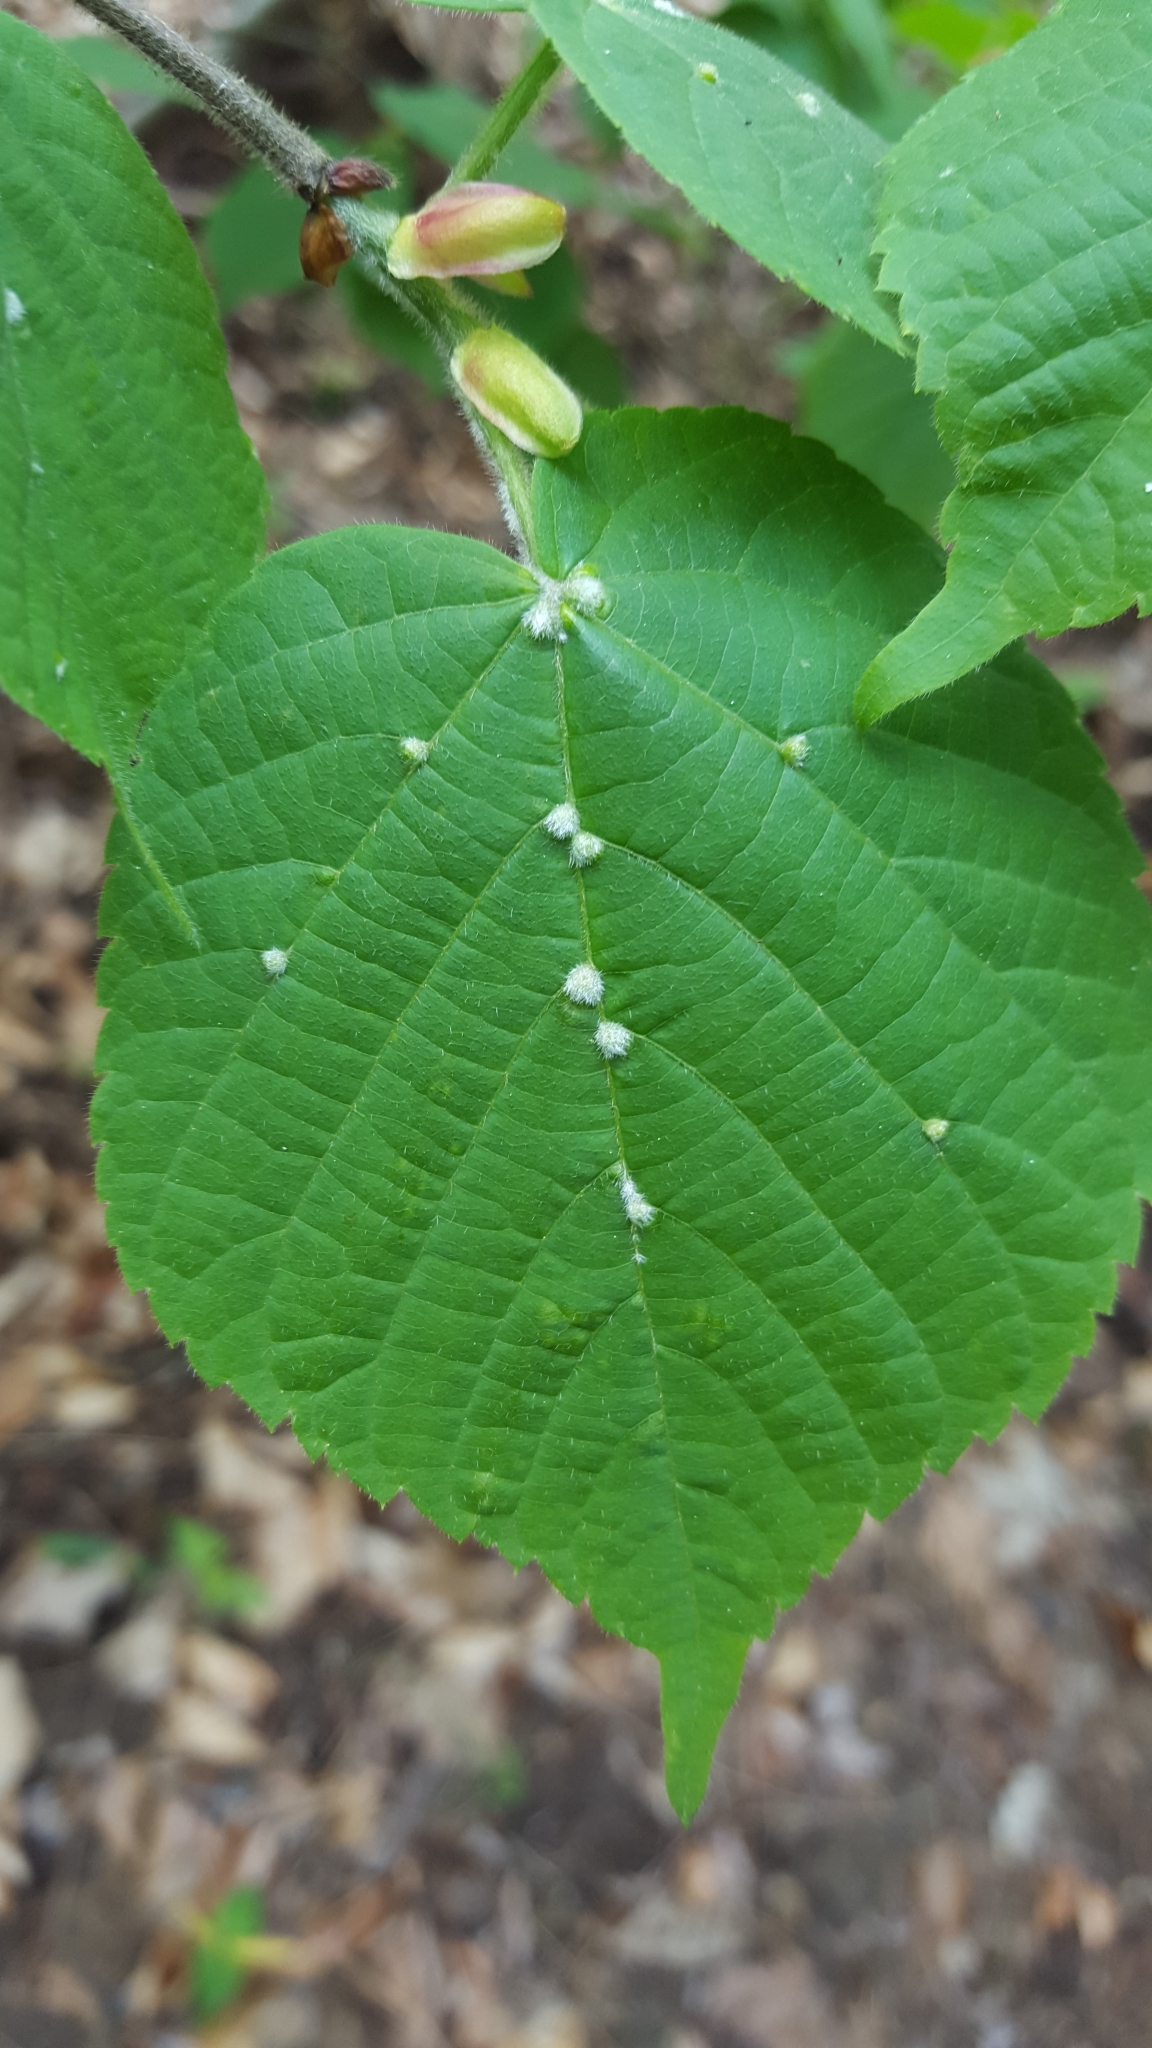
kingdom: Animalia
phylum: Arthropoda
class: Arachnida
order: Trombidiformes
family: Eriophyidae
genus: Eriophyes
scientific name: Eriophyes exilis
